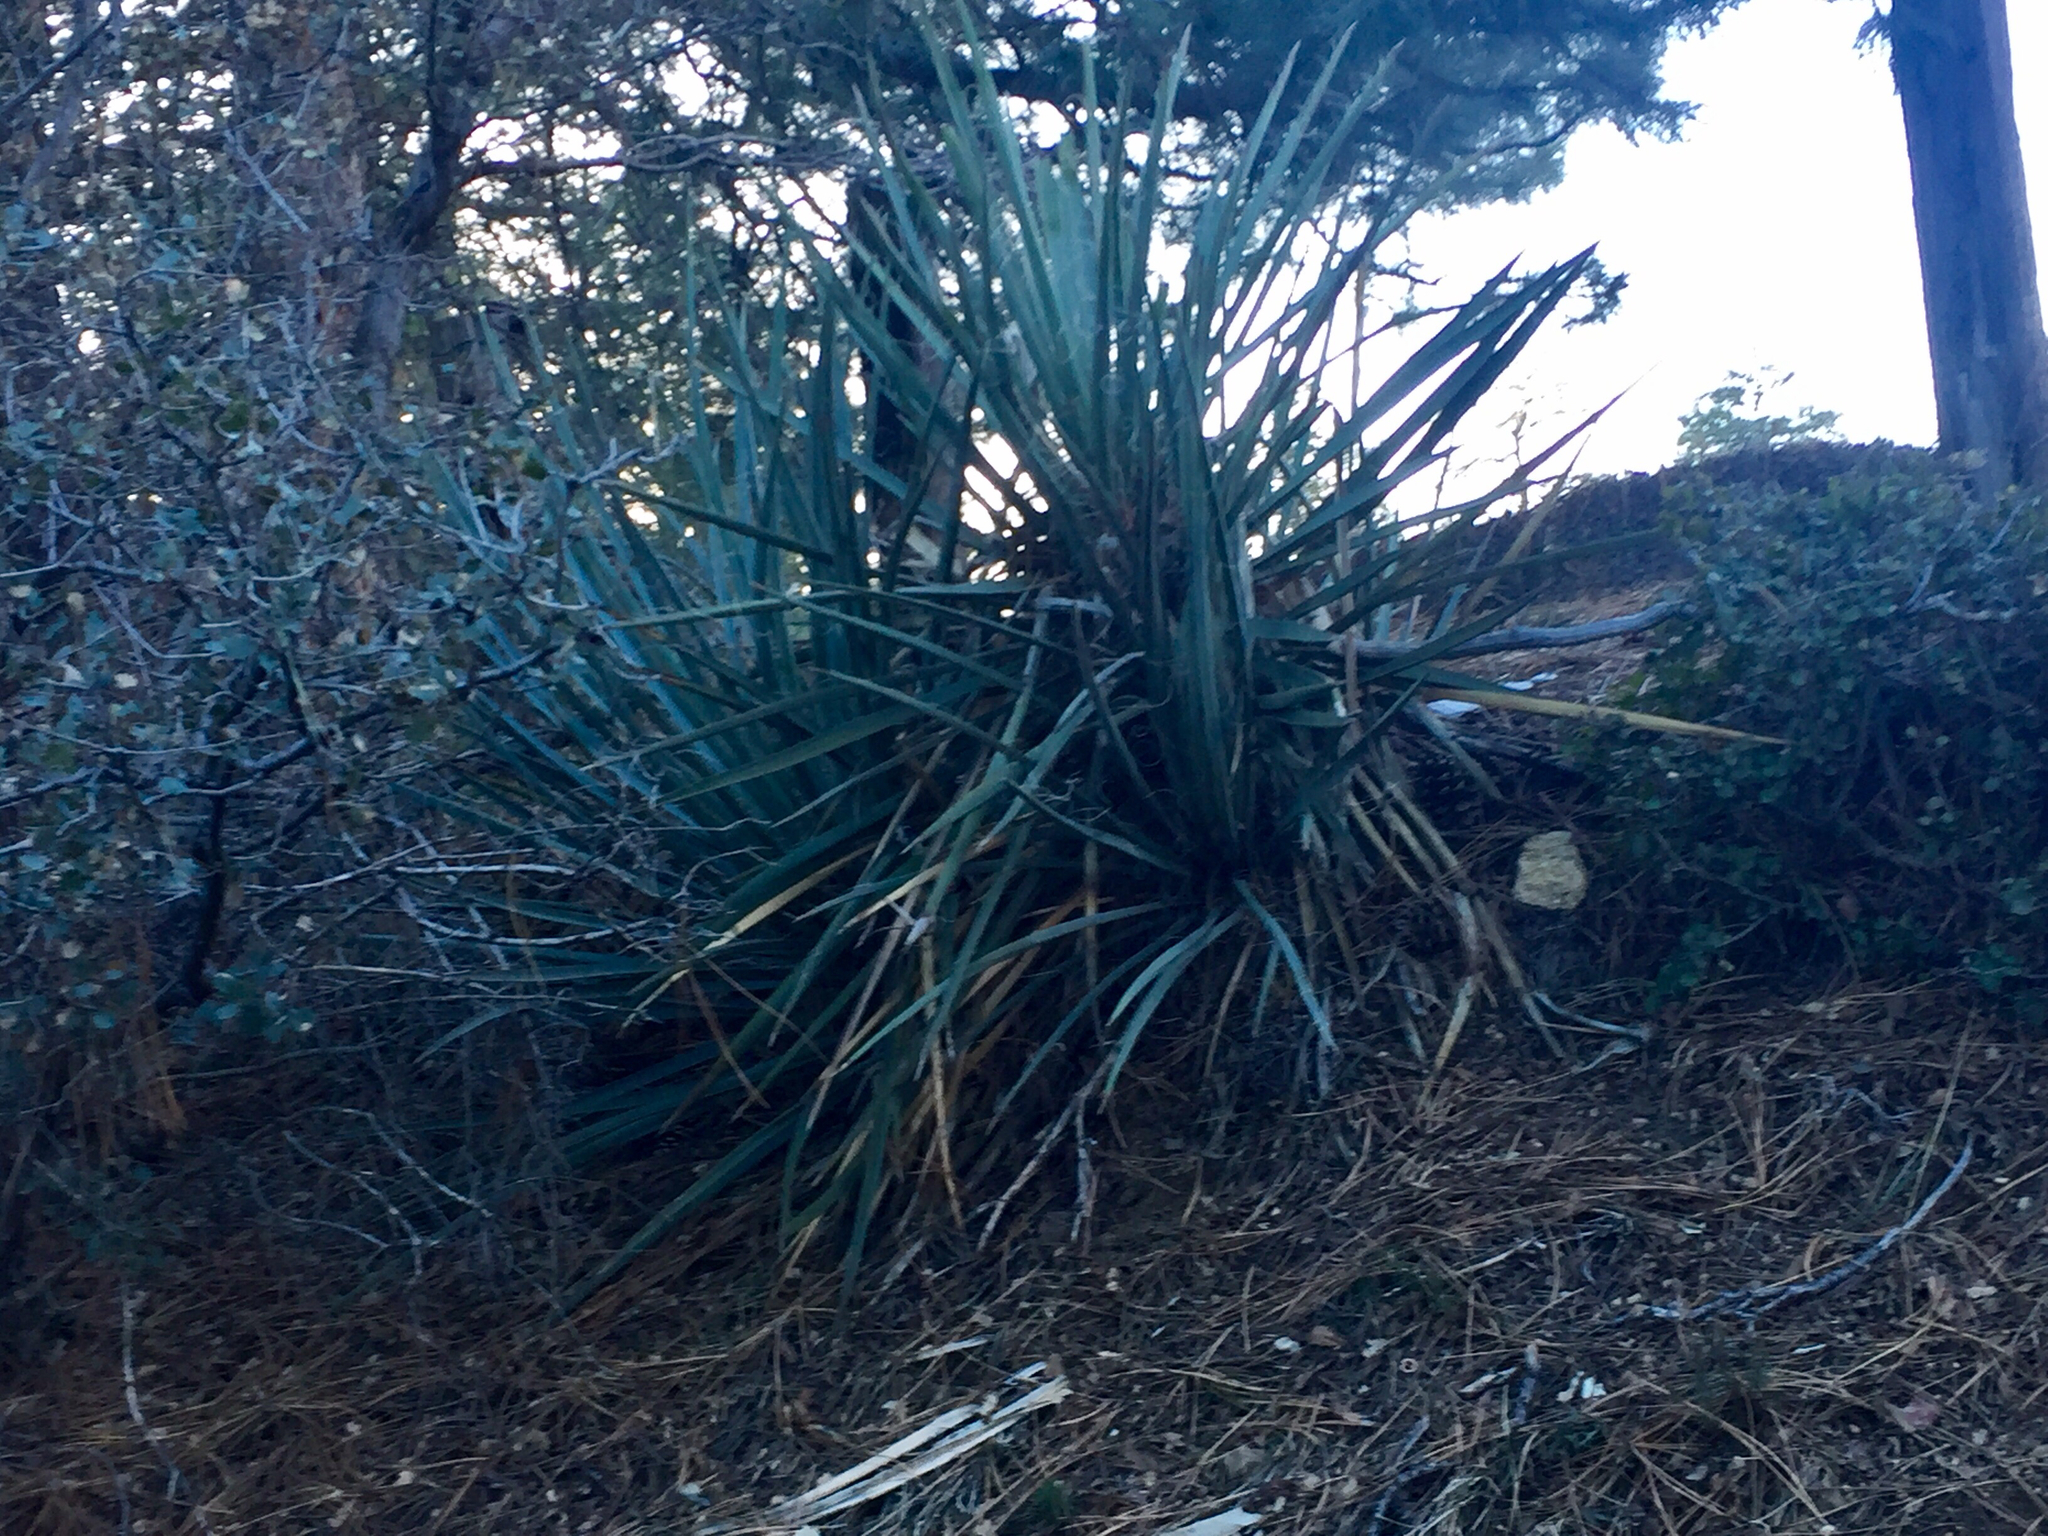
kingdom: Plantae
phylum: Tracheophyta
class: Liliopsida
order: Asparagales
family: Asparagaceae
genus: Yucca
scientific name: Yucca baccata
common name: Banana yucca
